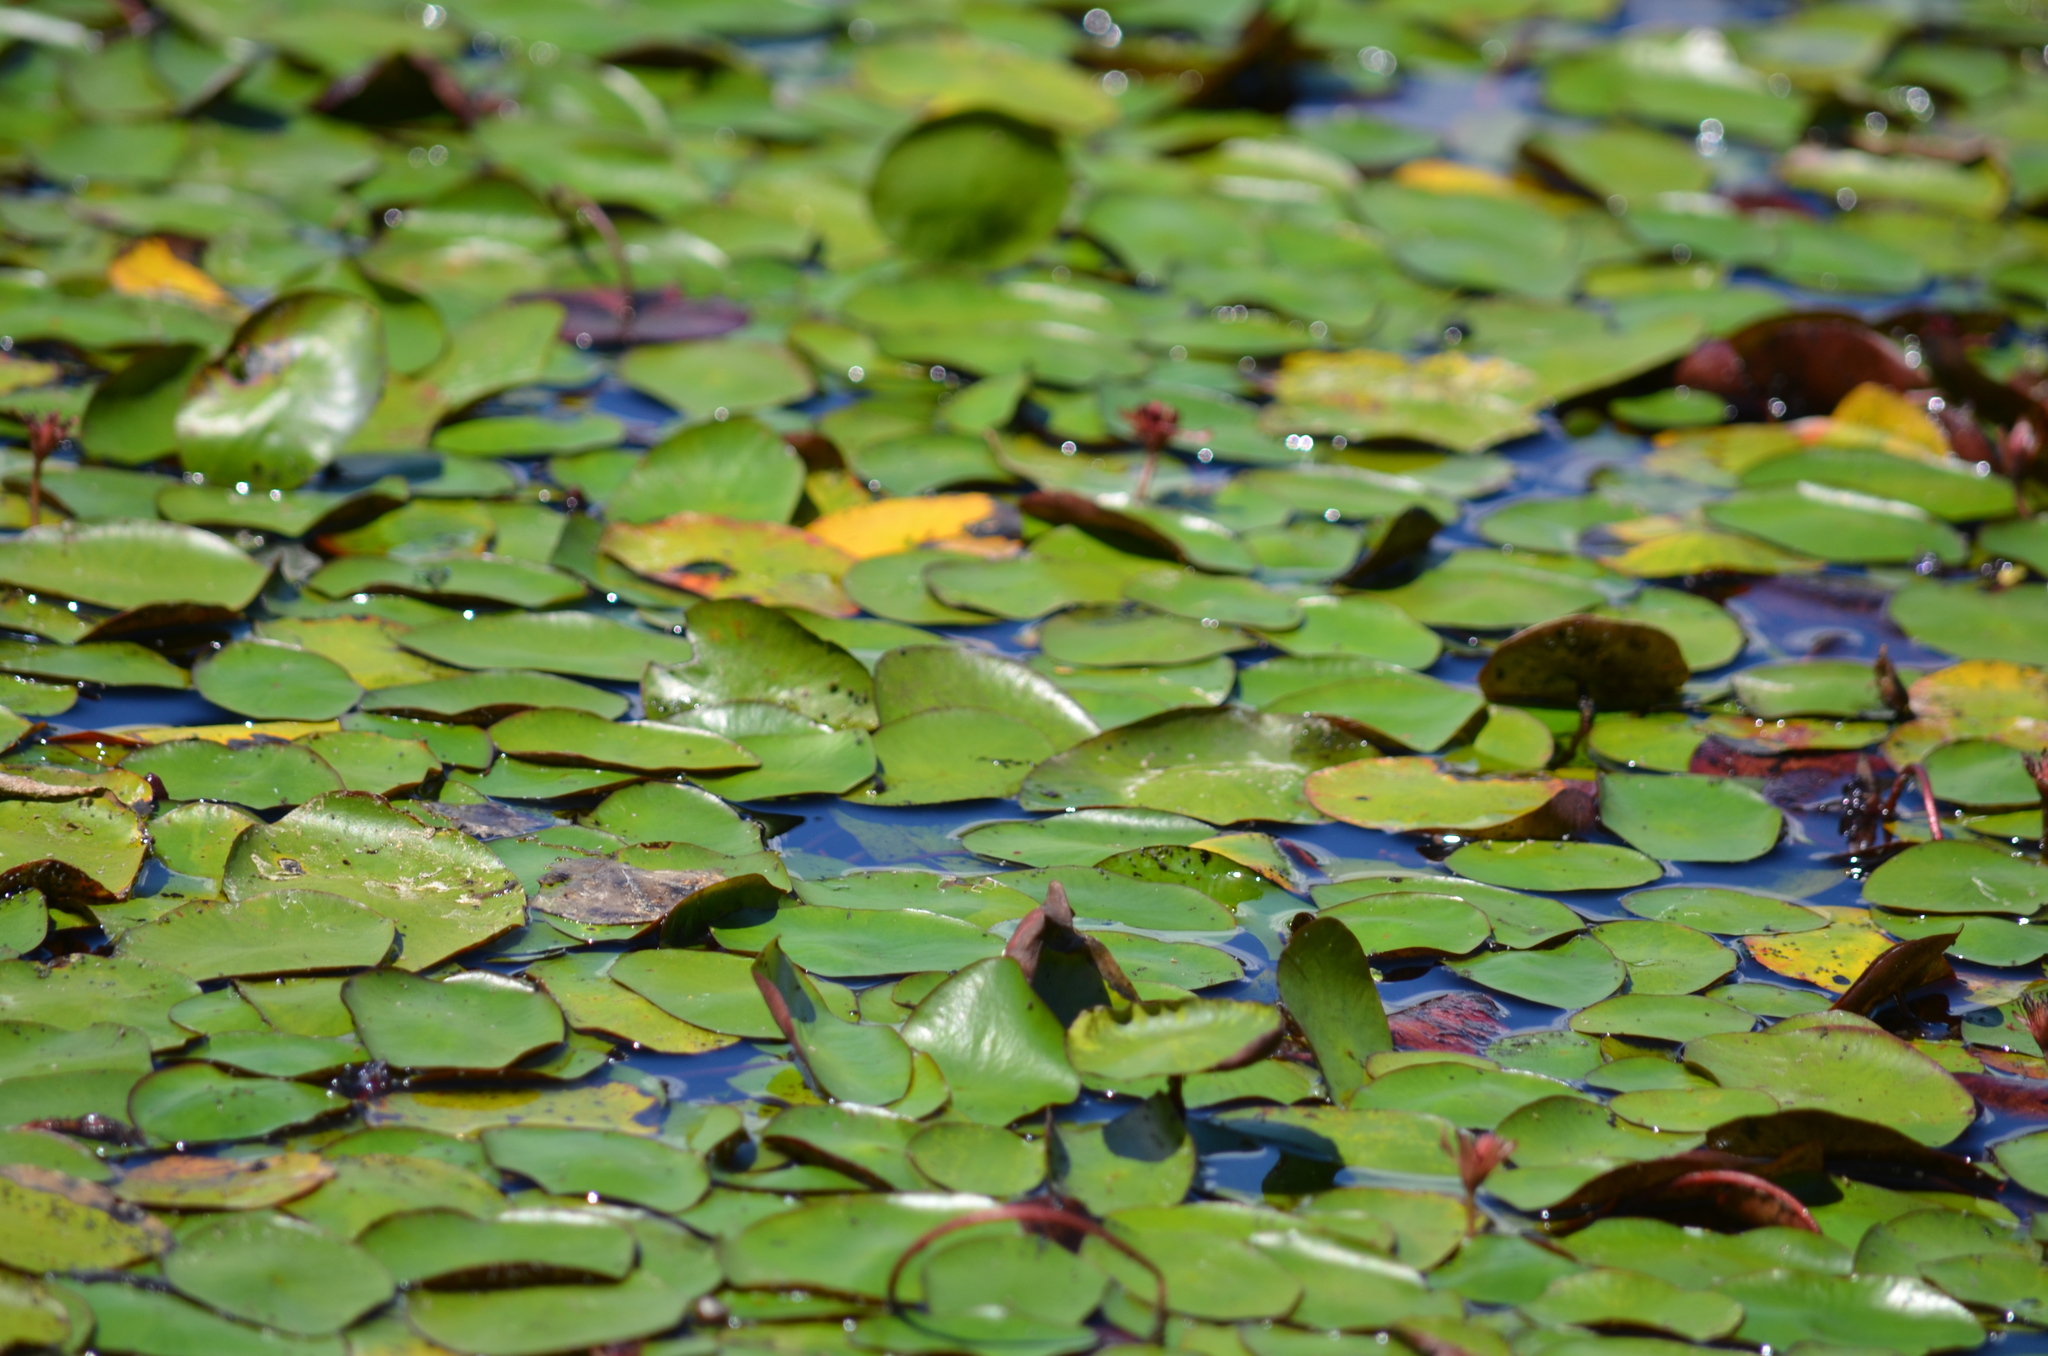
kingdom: Plantae
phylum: Tracheophyta
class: Magnoliopsida
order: Nymphaeales
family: Cabombaceae
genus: Brasenia
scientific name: Brasenia schreberi
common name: Water-shield
